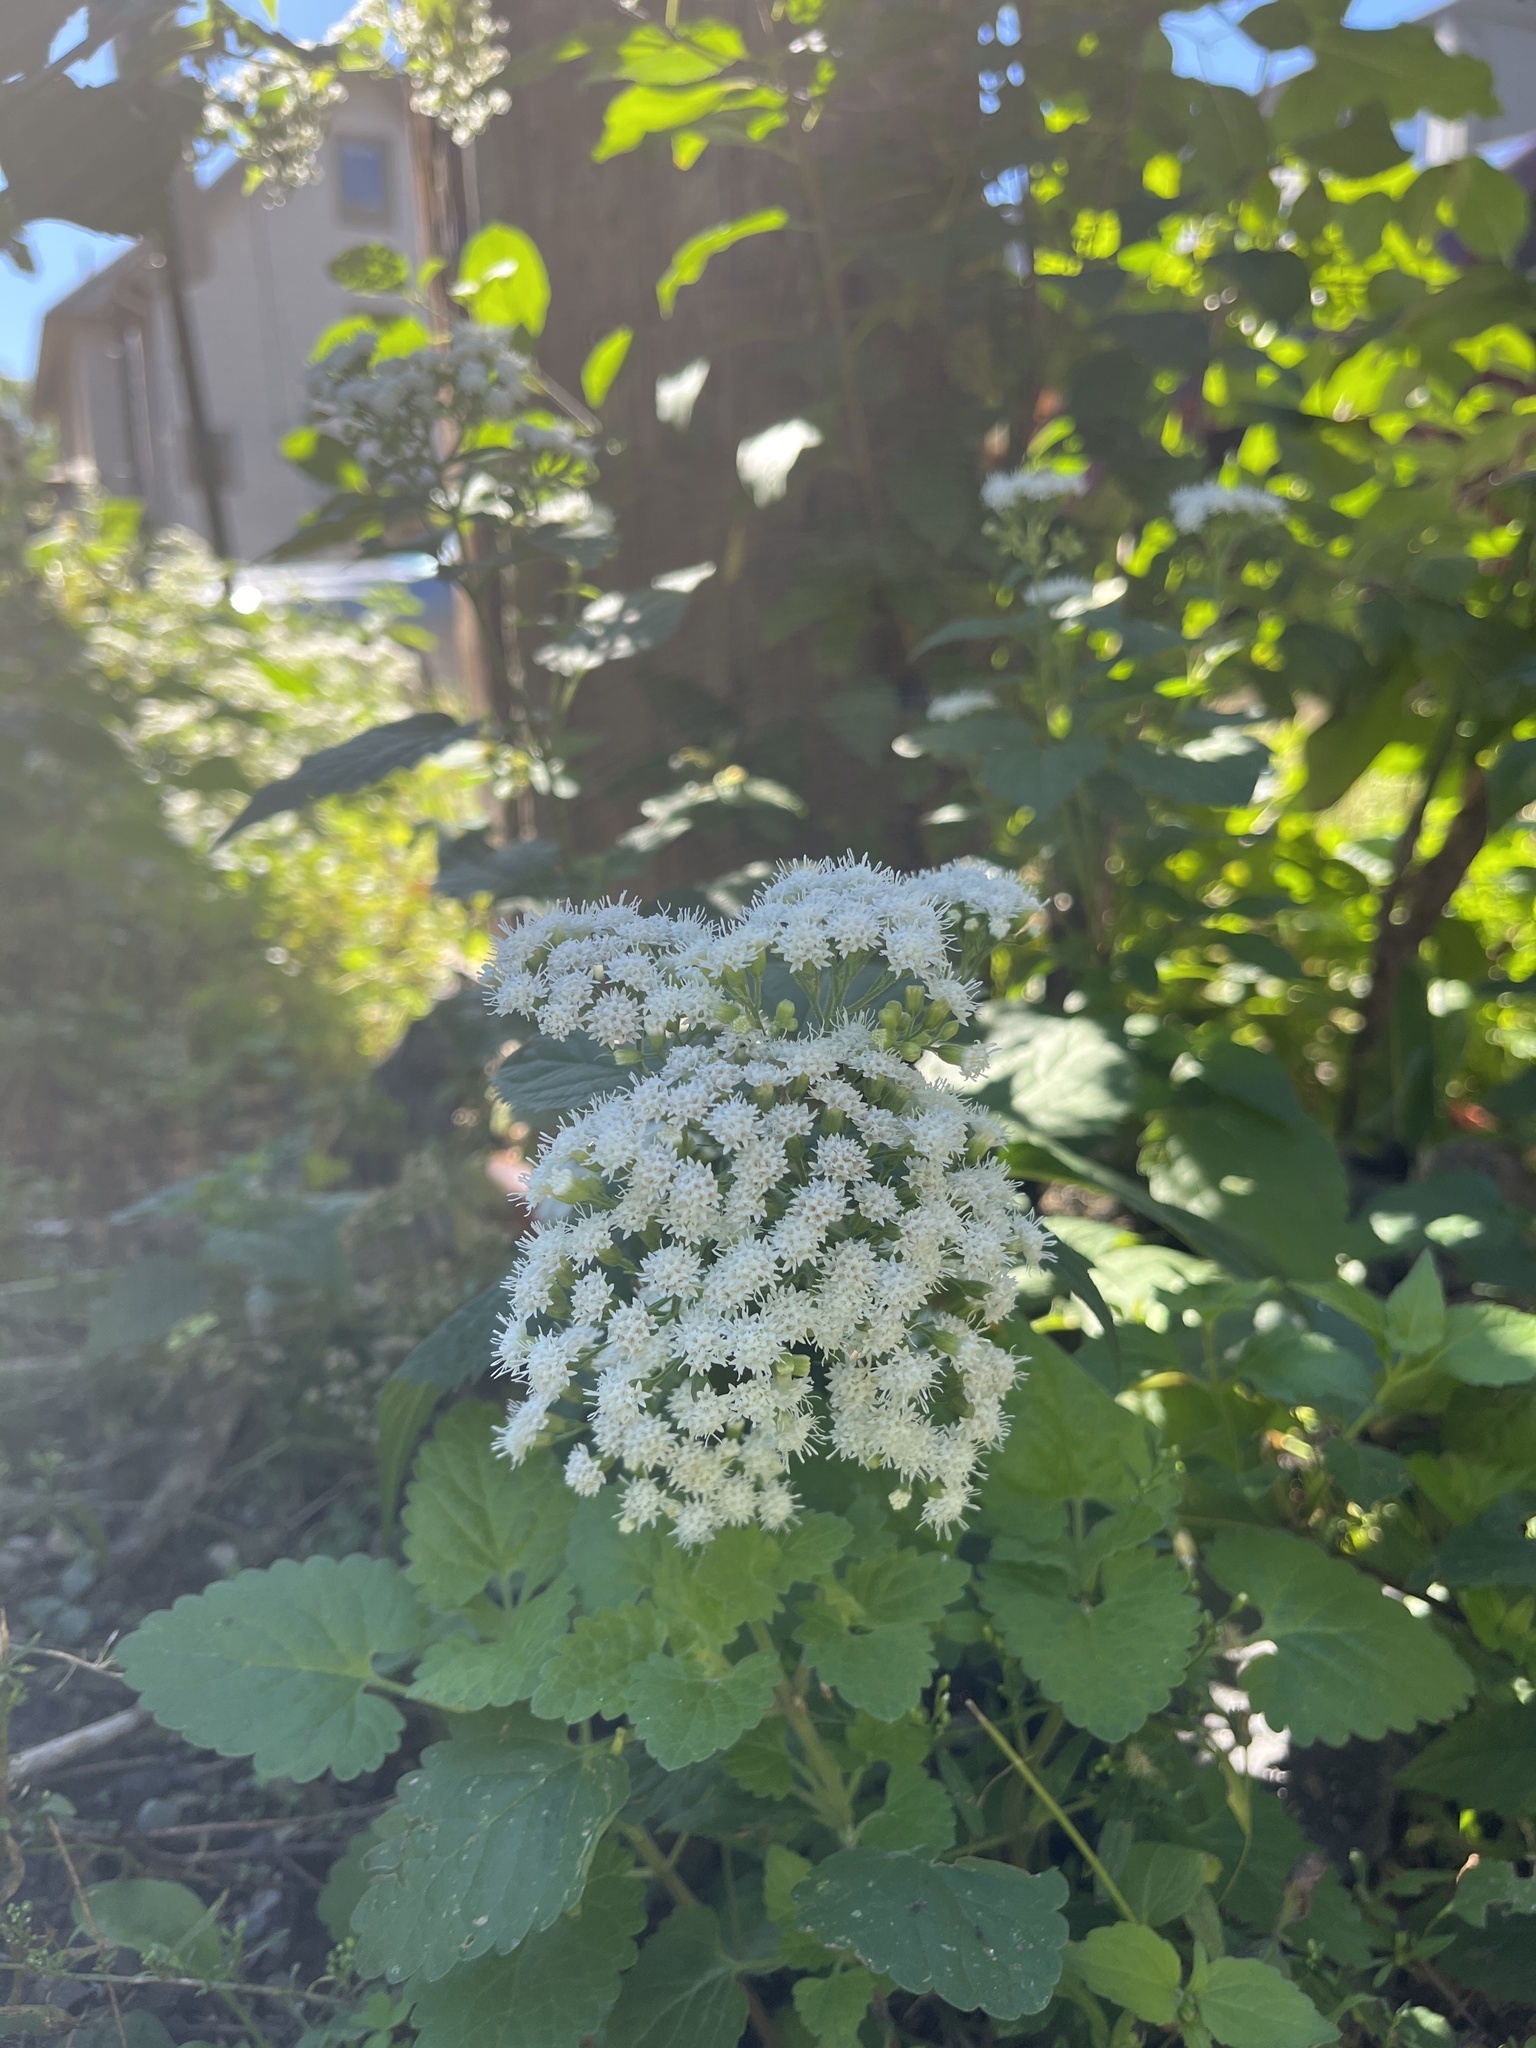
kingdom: Plantae
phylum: Tracheophyta
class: Magnoliopsida
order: Asterales
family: Asteraceae
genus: Ageratina
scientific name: Ageratina altissima
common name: White snakeroot
